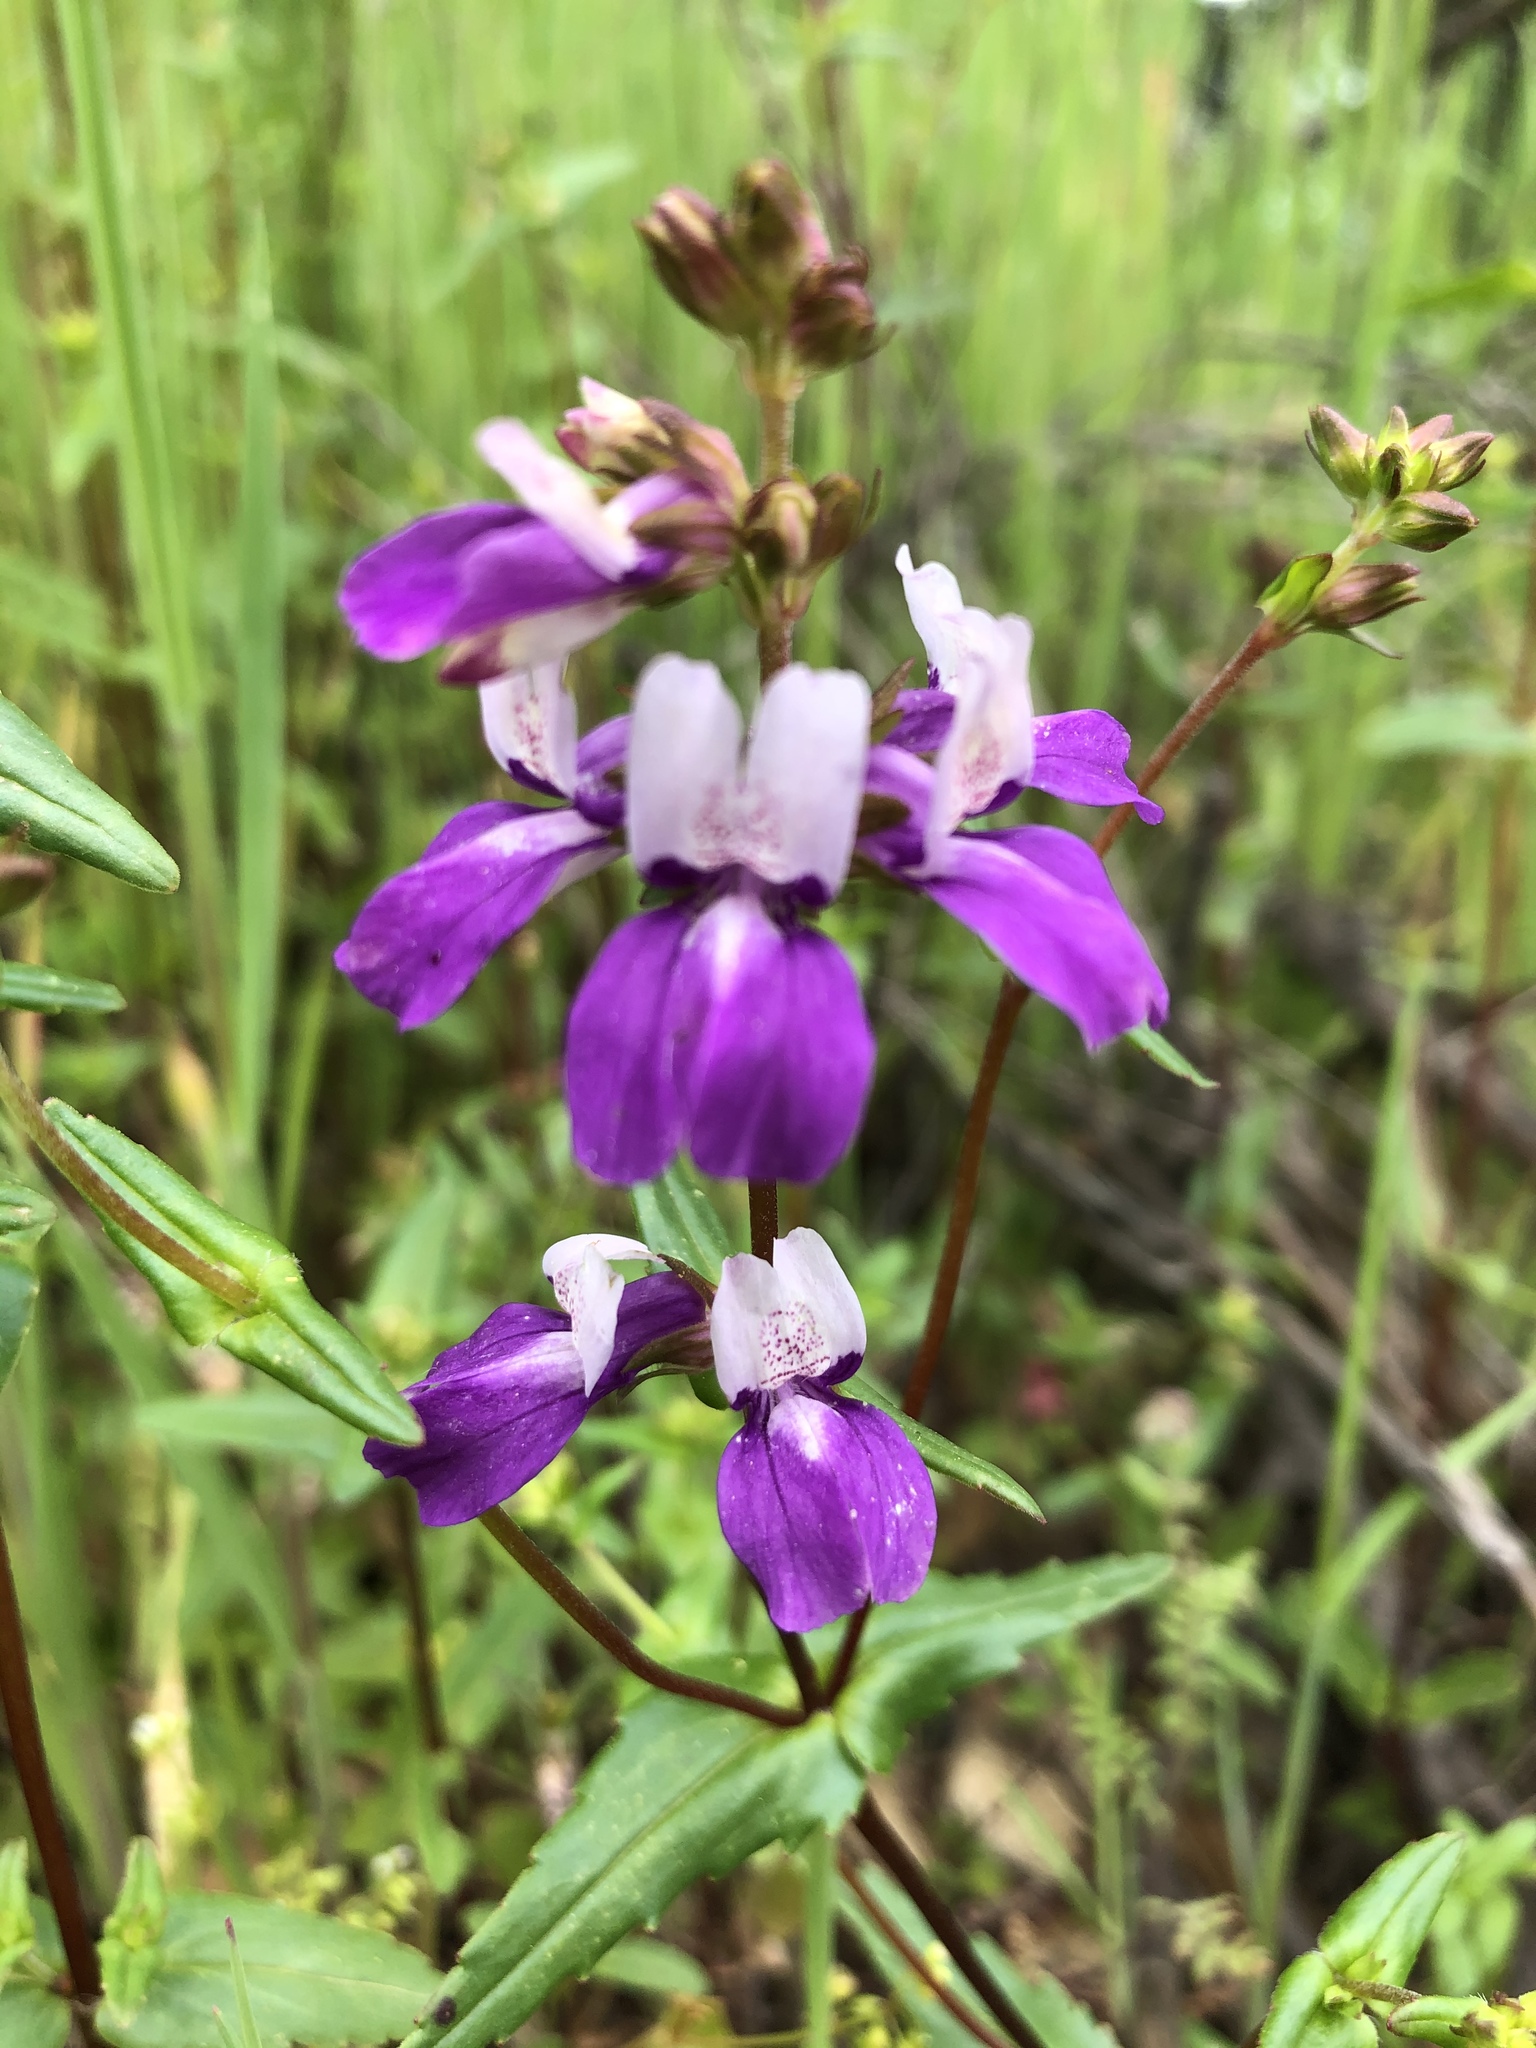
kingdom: Plantae
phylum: Tracheophyta
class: Magnoliopsida
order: Lamiales
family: Plantaginaceae
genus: Collinsia
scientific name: Collinsia heterophylla
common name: Chinese-houses
